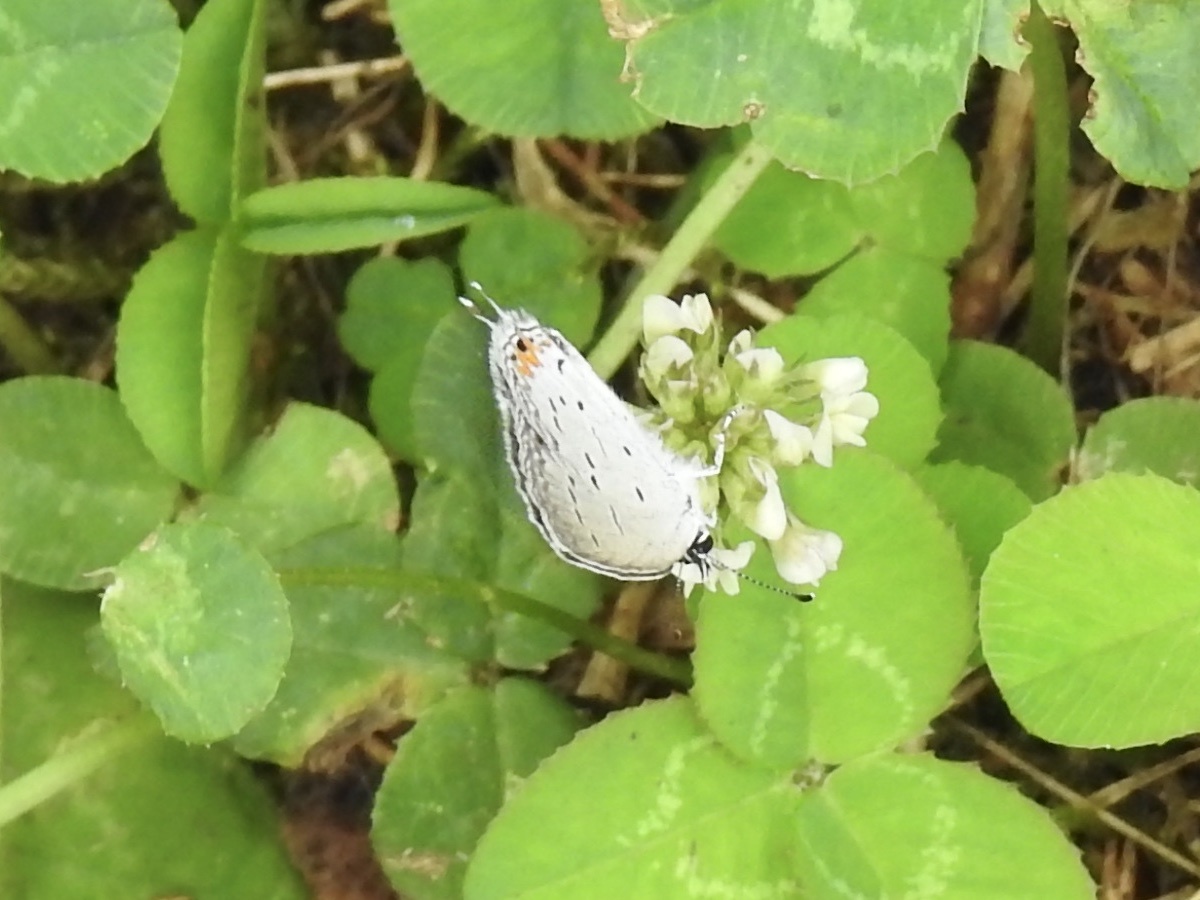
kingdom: Animalia
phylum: Arthropoda
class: Insecta
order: Lepidoptera
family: Lycaenidae
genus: Elkalyce
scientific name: Elkalyce comyntas
